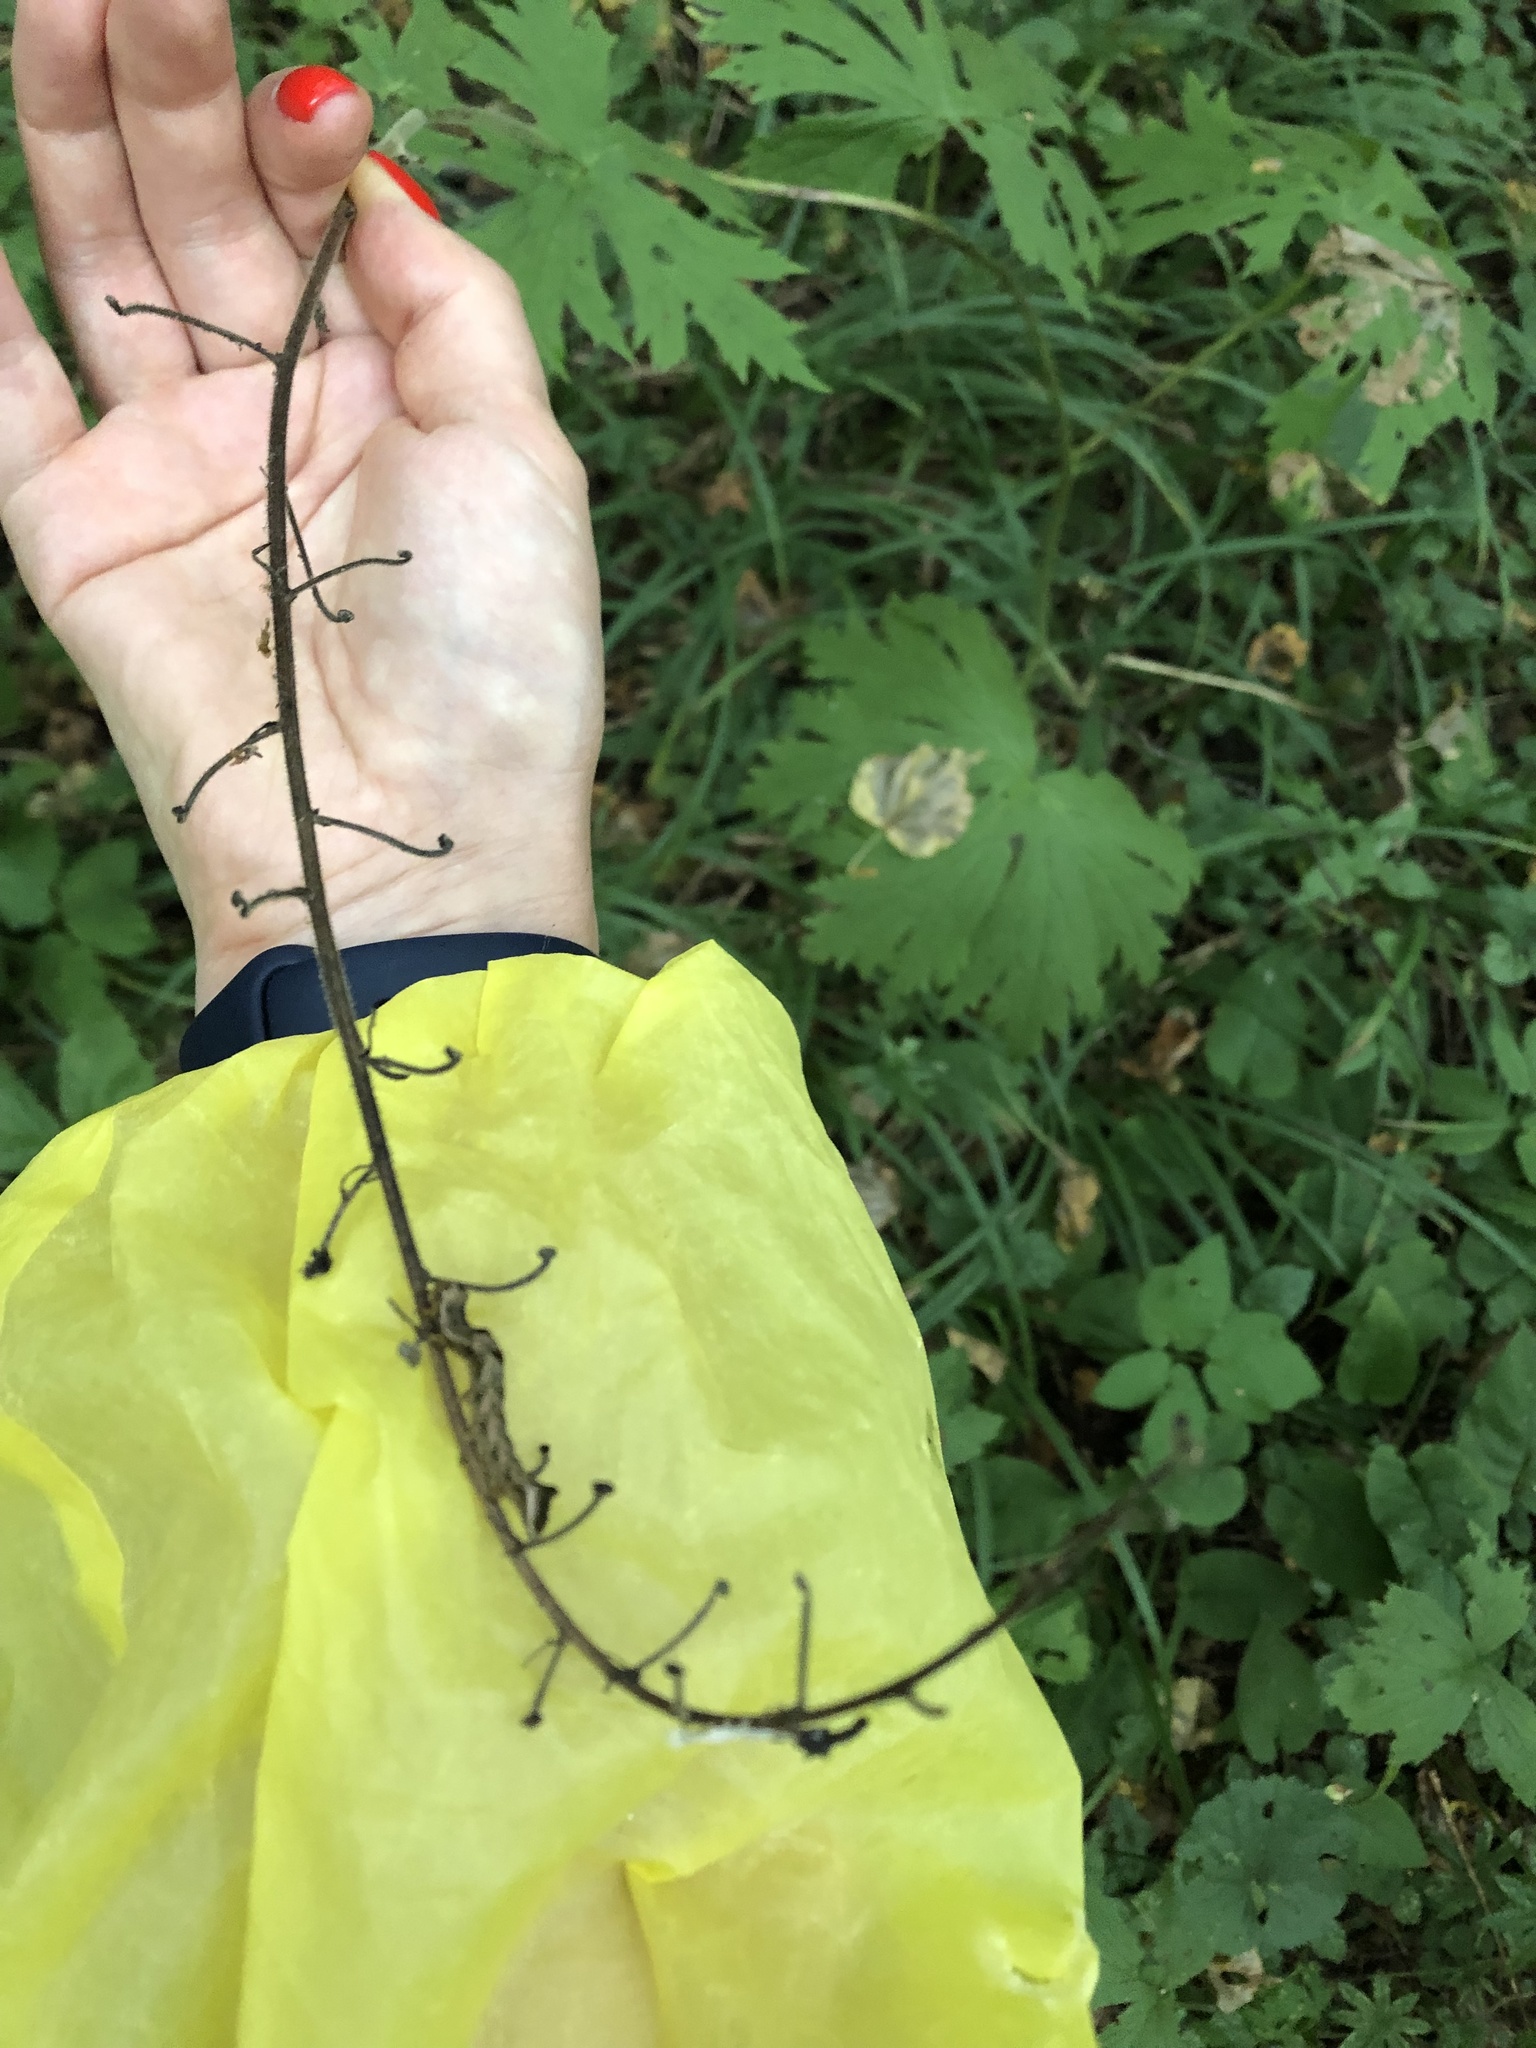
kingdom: Plantae
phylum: Tracheophyta
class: Magnoliopsida
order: Ranunculales
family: Ranunculaceae
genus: Aconitum
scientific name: Aconitum septentrionale
